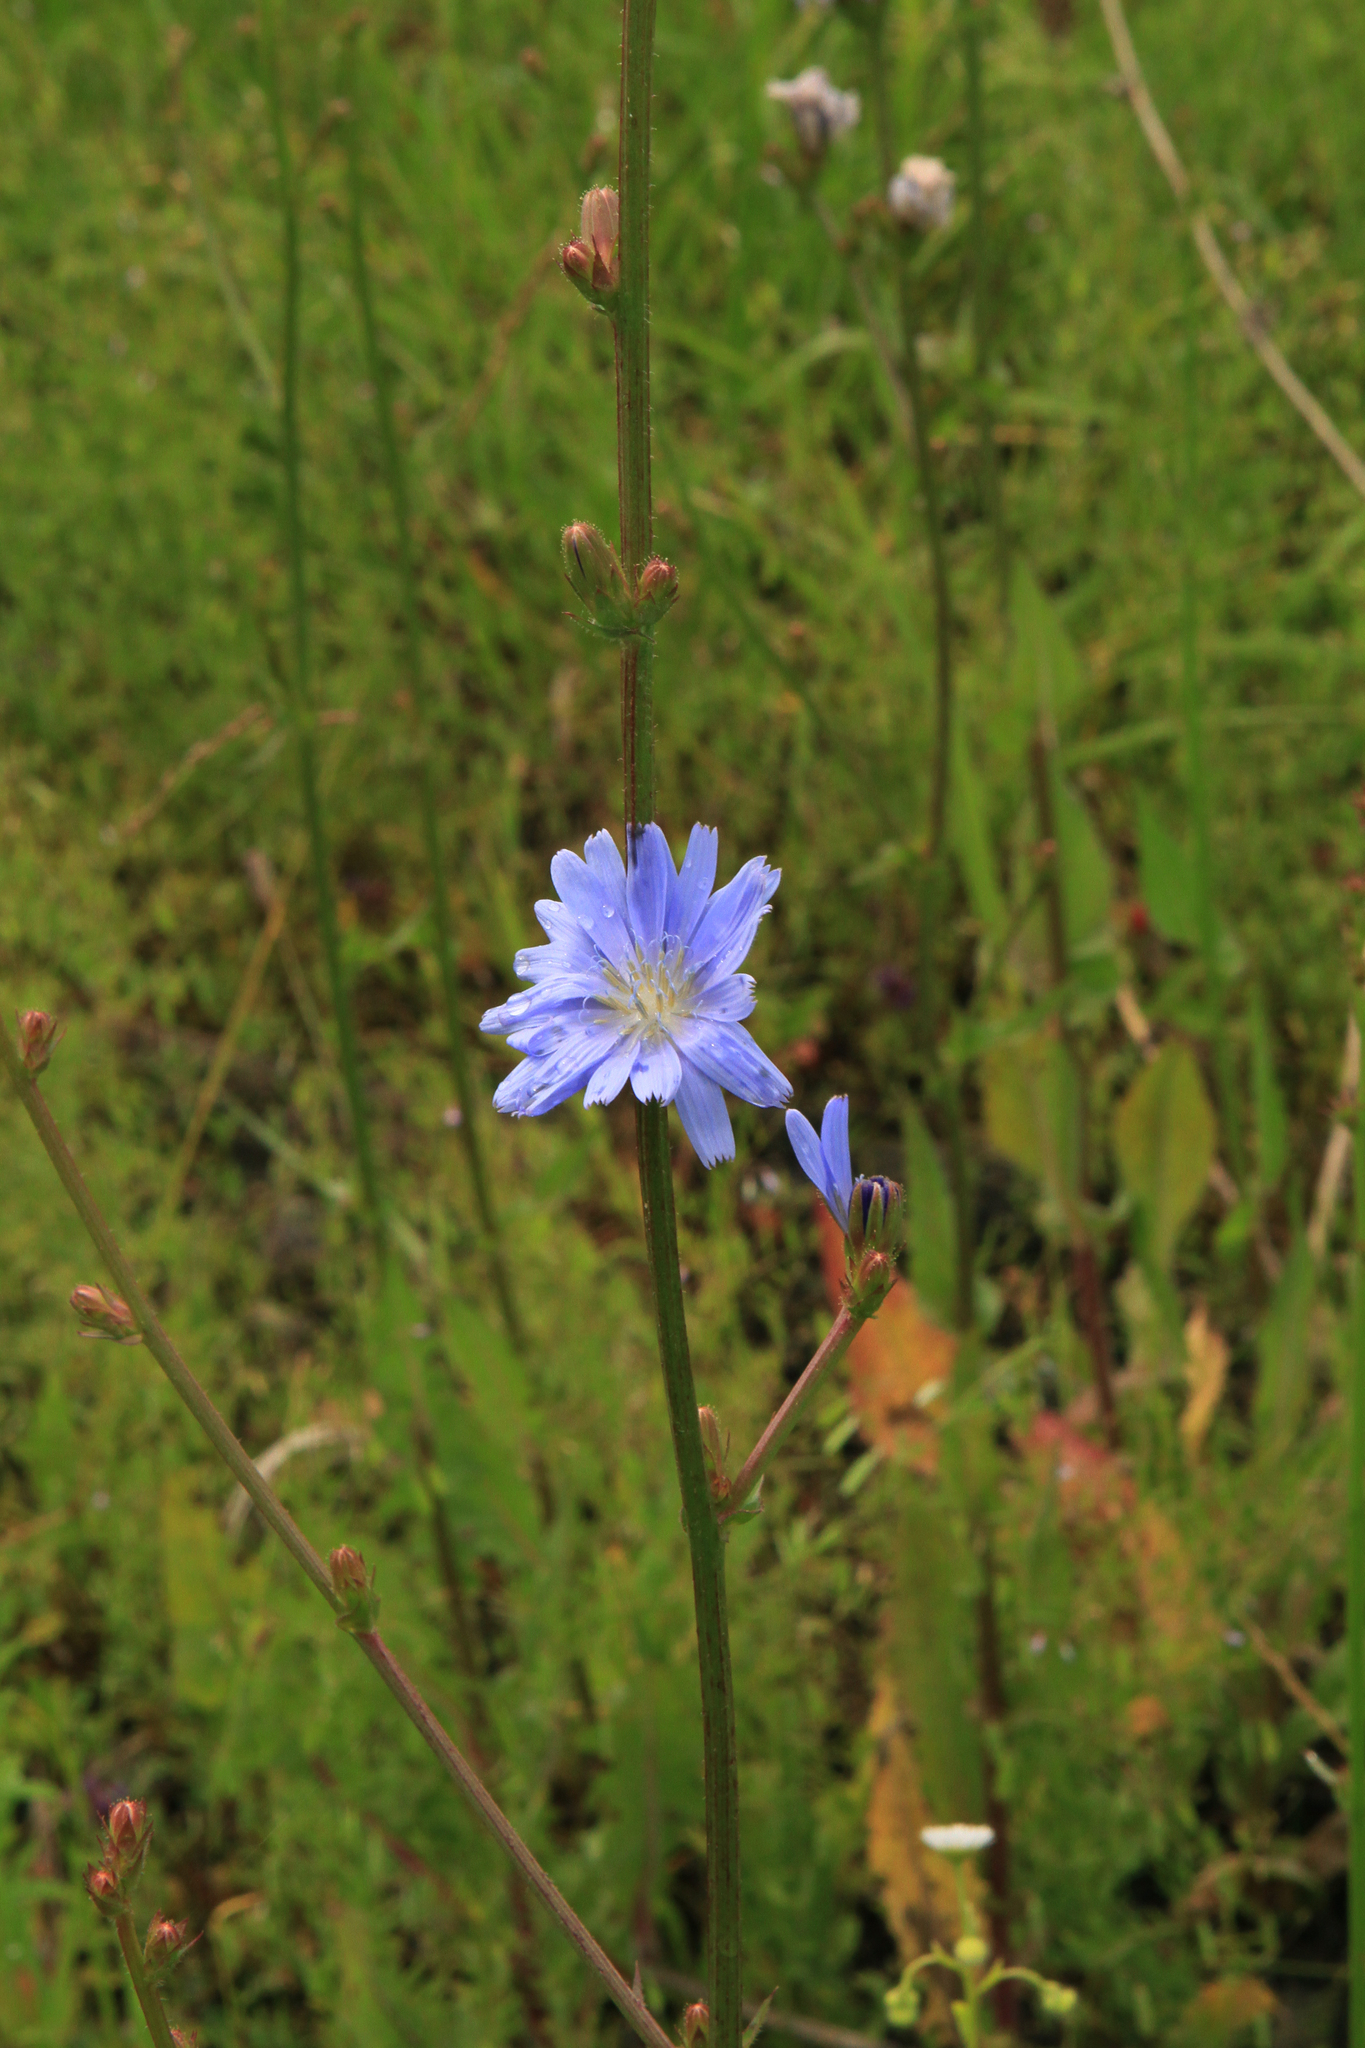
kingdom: Plantae
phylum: Tracheophyta
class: Magnoliopsida
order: Asterales
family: Asteraceae
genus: Cichorium
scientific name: Cichorium intybus
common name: Chicory
